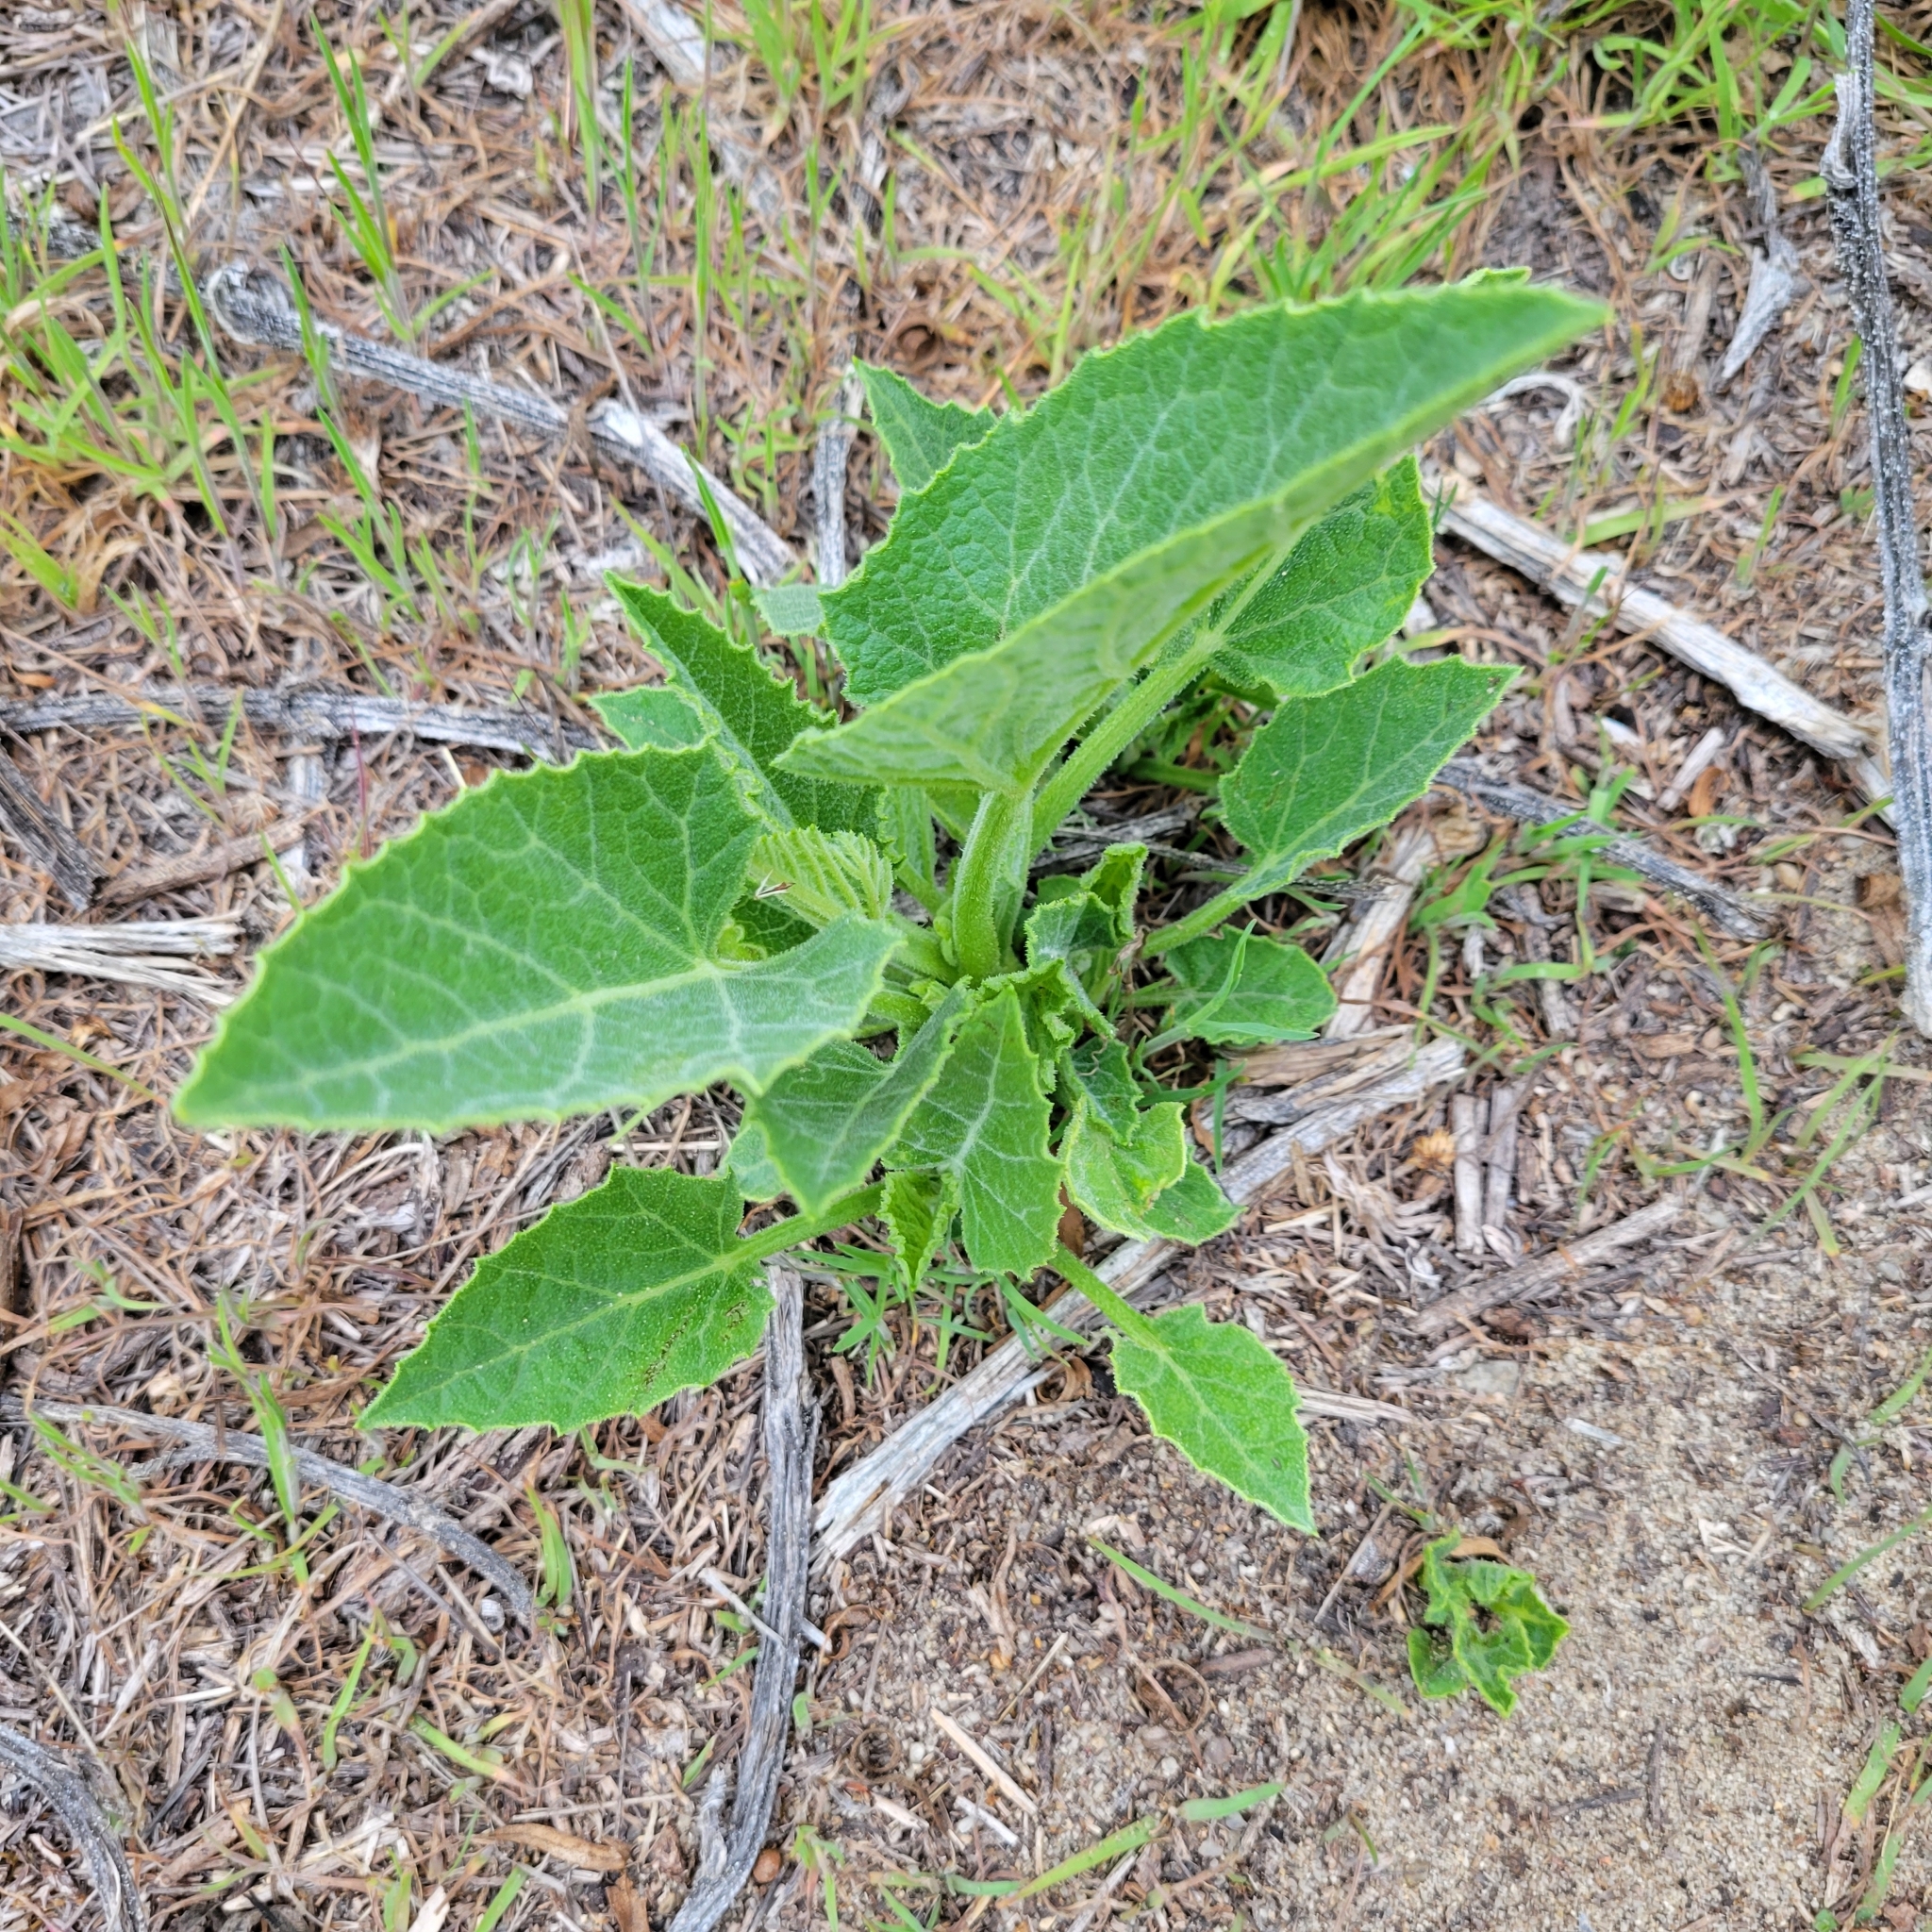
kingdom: Plantae
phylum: Tracheophyta
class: Magnoliopsida
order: Cucurbitales
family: Cucurbitaceae
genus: Cucurbita
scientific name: Cucurbita foetidissima
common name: Buffalo gourd
